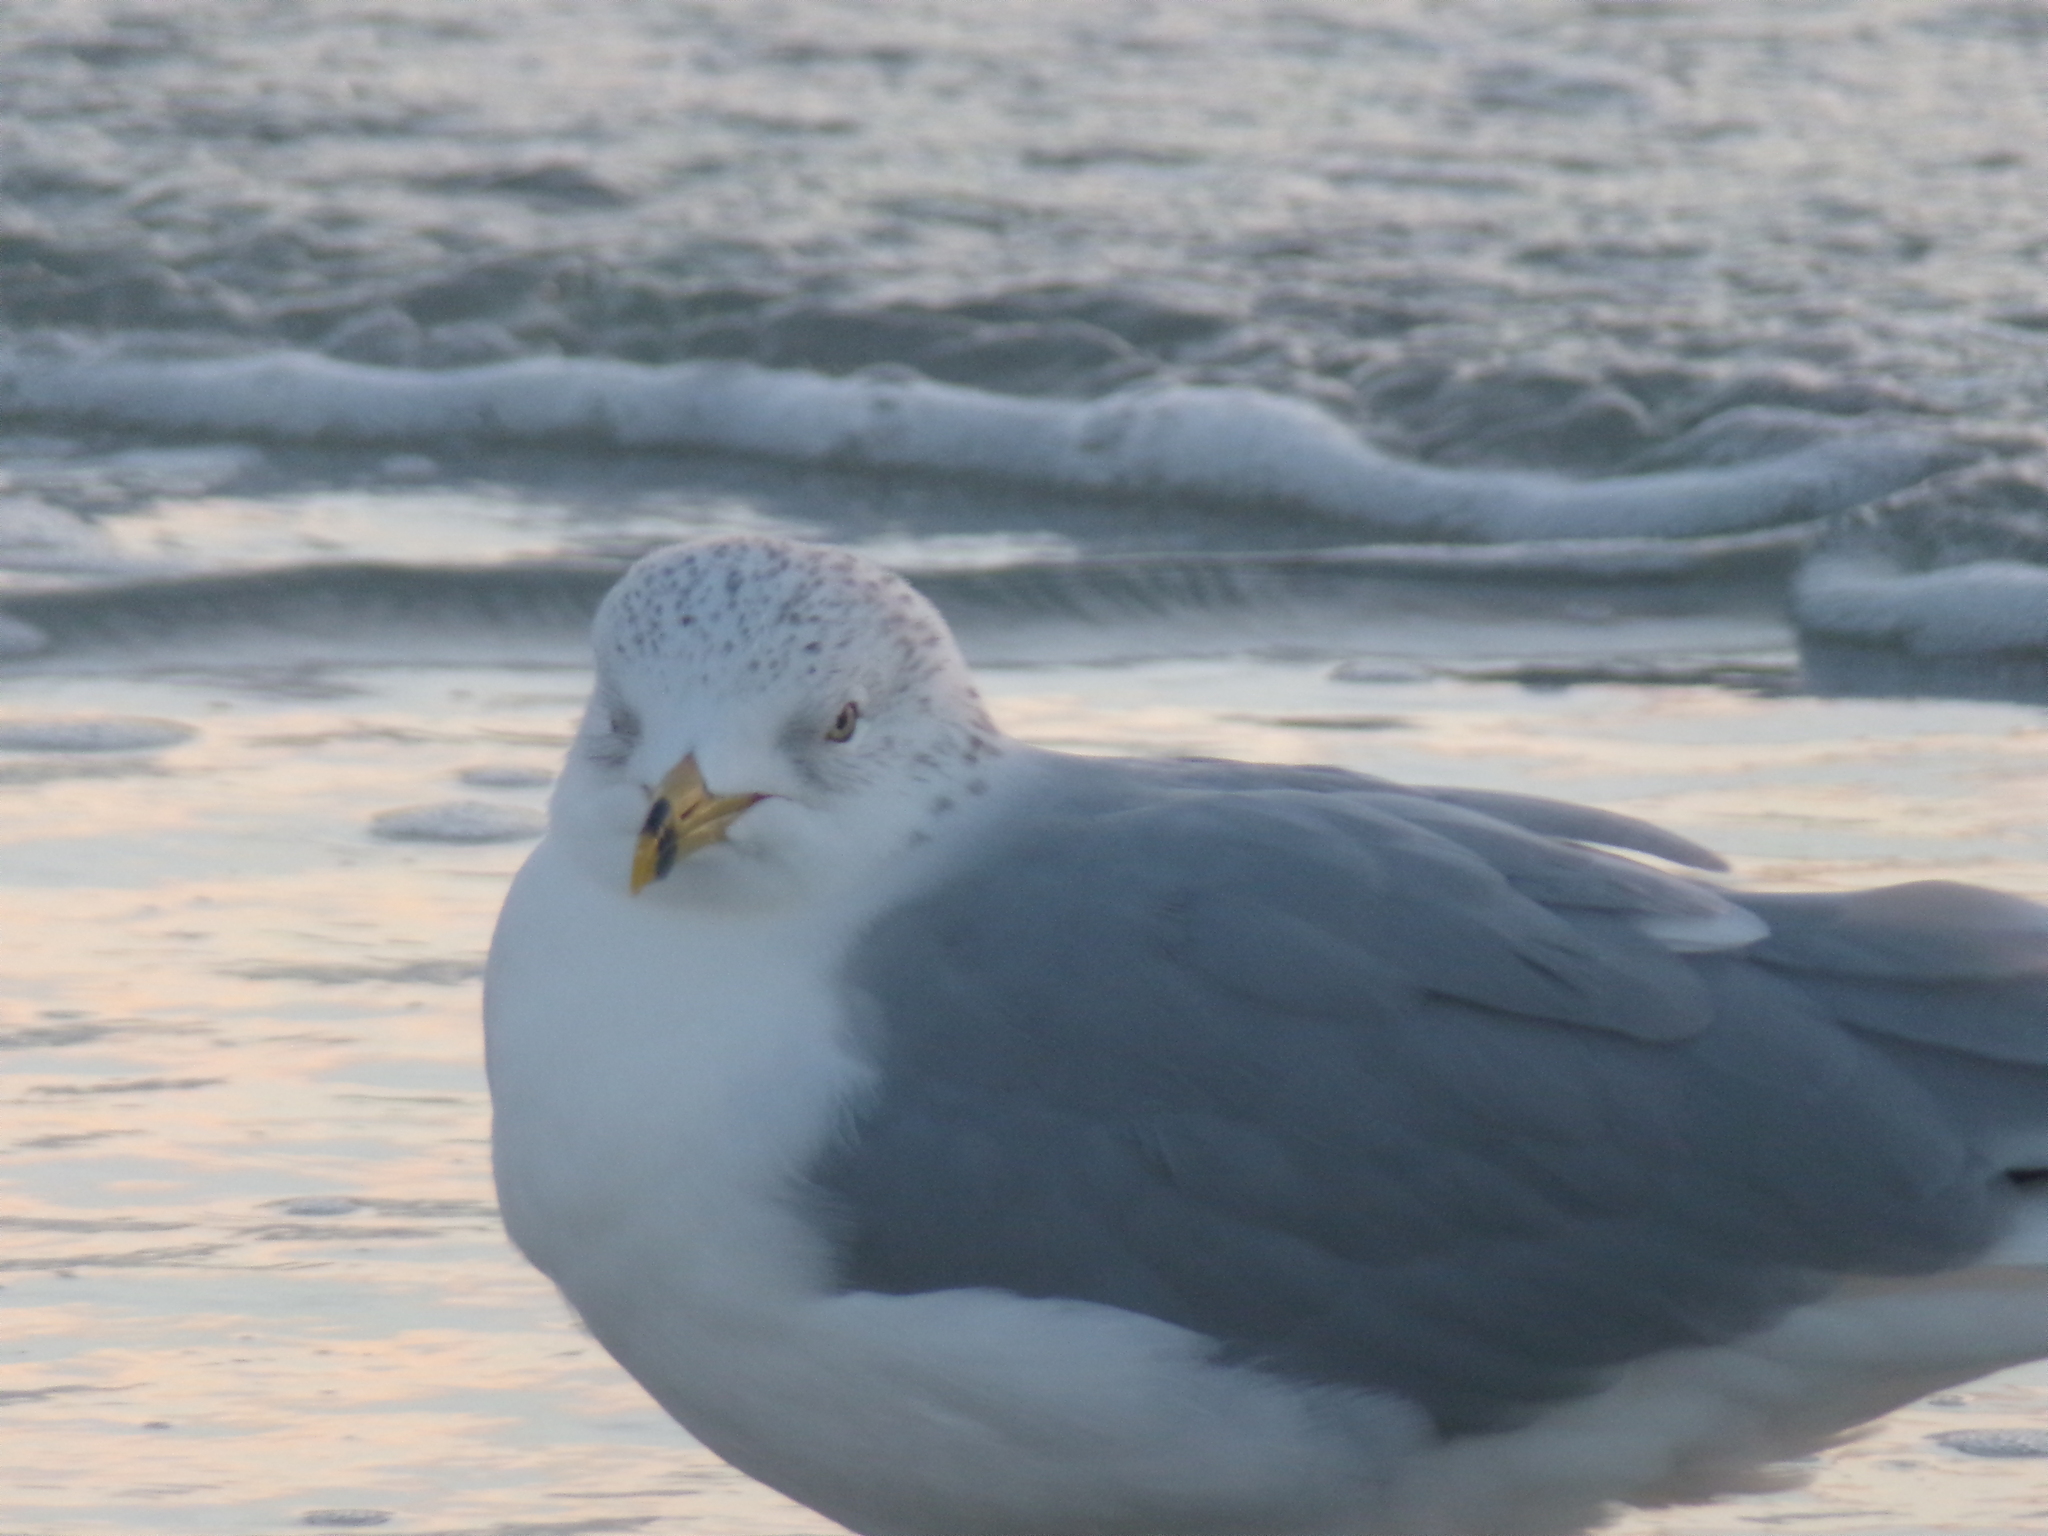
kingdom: Animalia
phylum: Chordata
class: Aves
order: Charadriiformes
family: Laridae
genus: Larus
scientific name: Larus delawarensis
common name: Ring-billed gull
